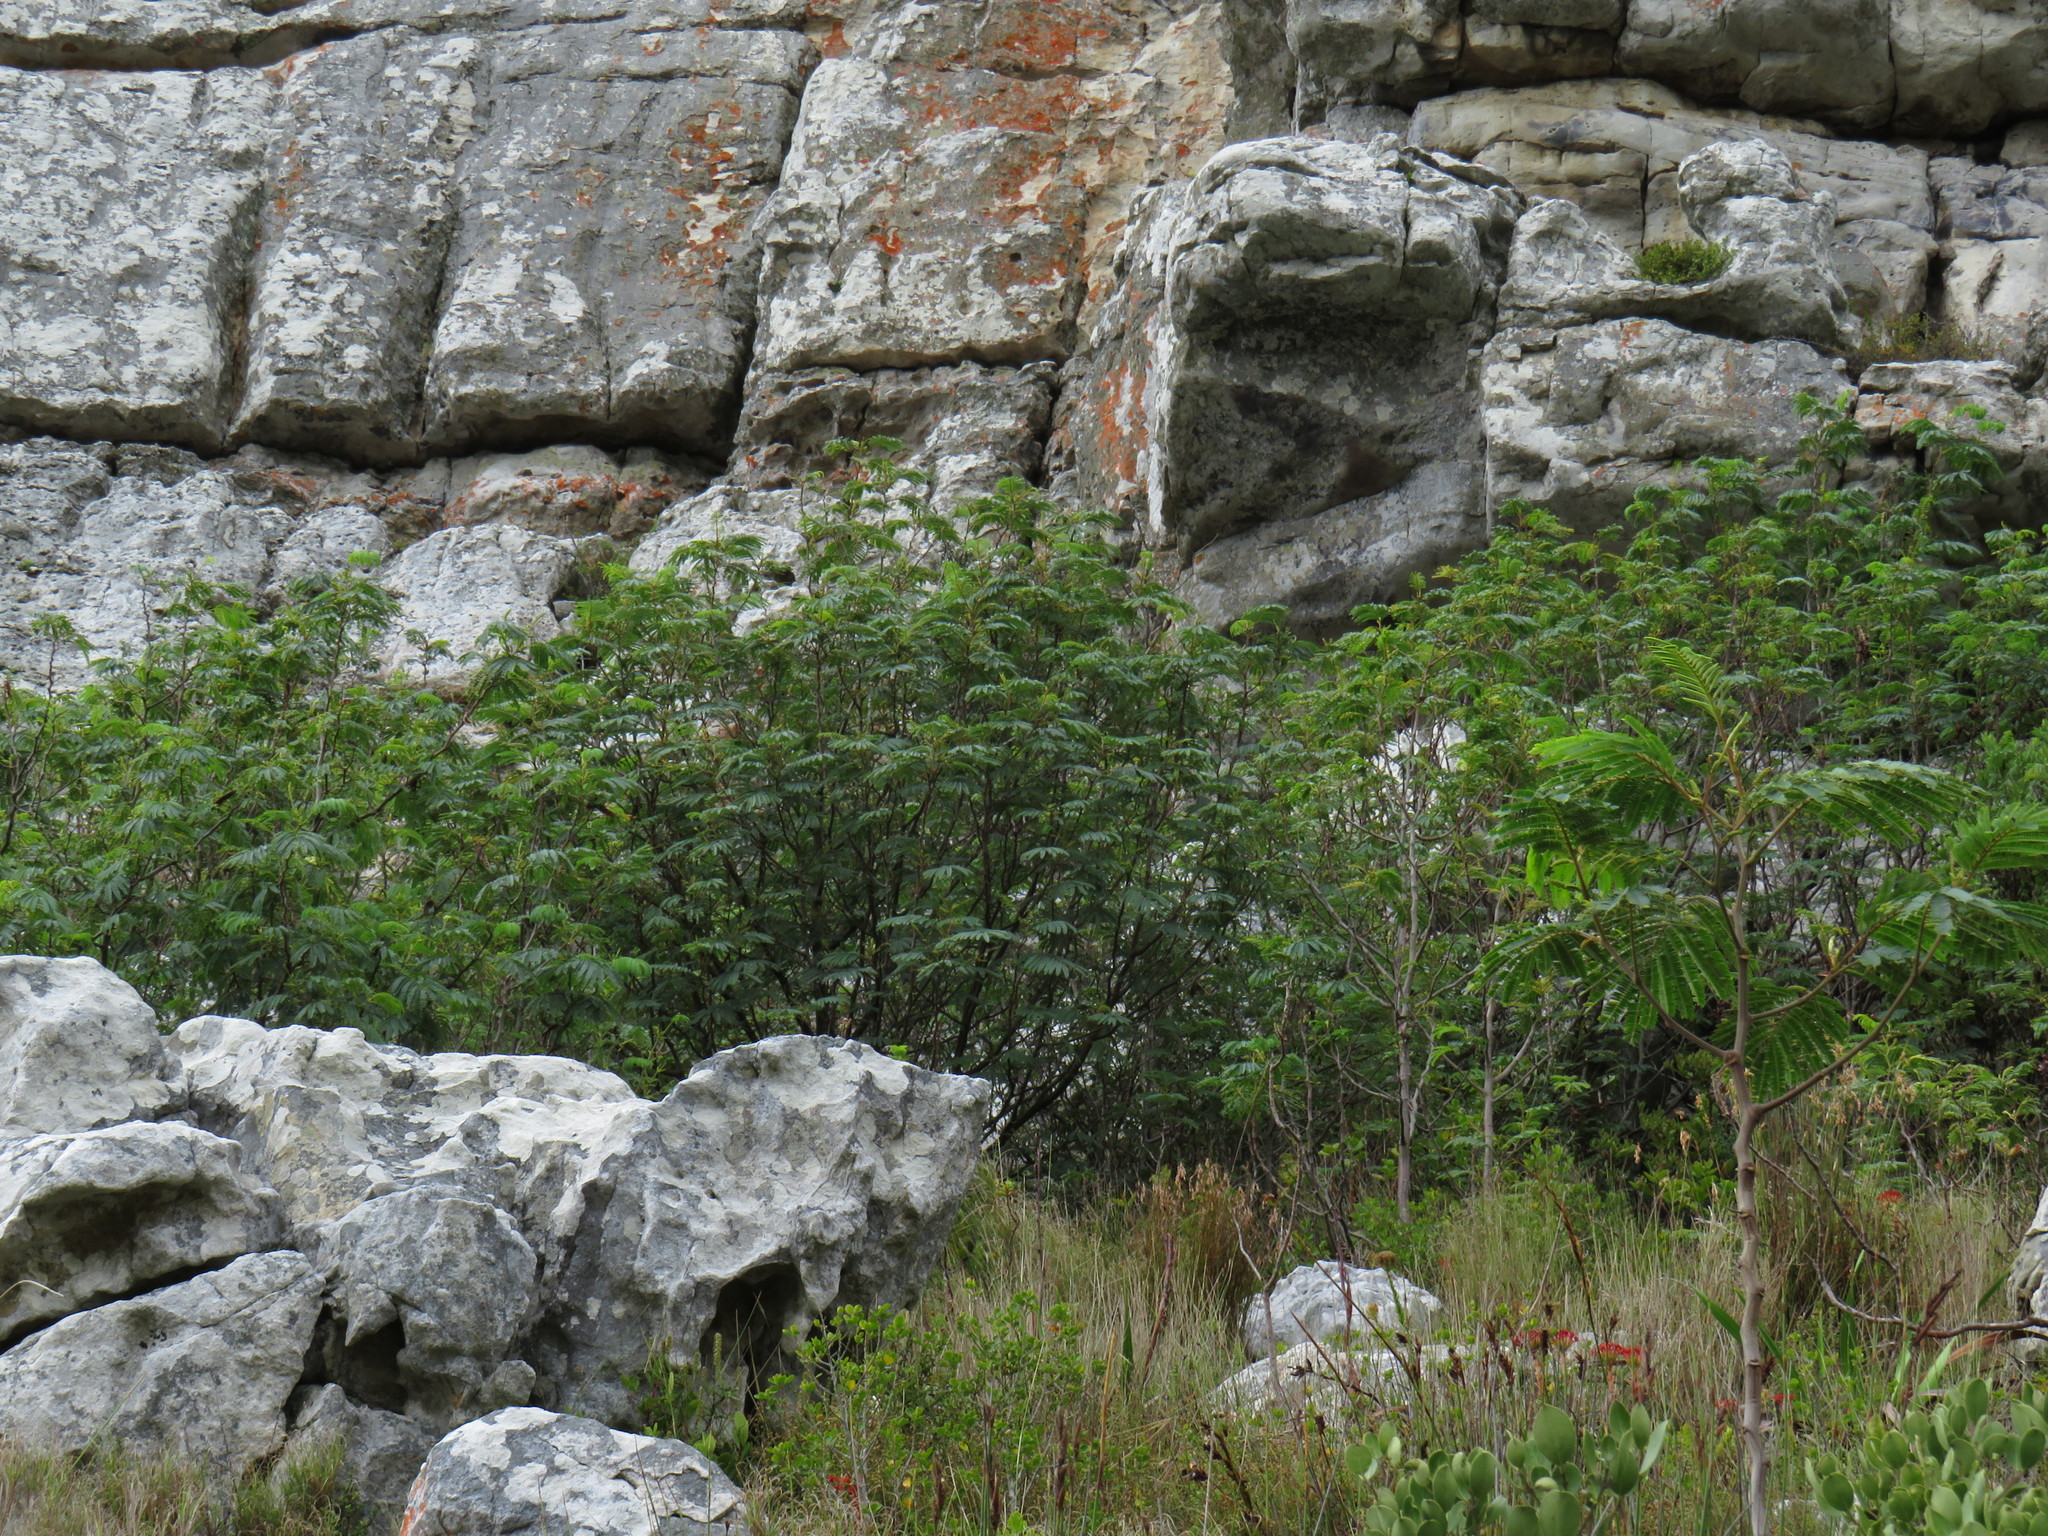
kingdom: Plantae
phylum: Tracheophyta
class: Magnoliopsida
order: Fabales
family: Fabaceae
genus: Paraserianthes
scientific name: Paraserianthes lophantha
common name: Plume albizia
